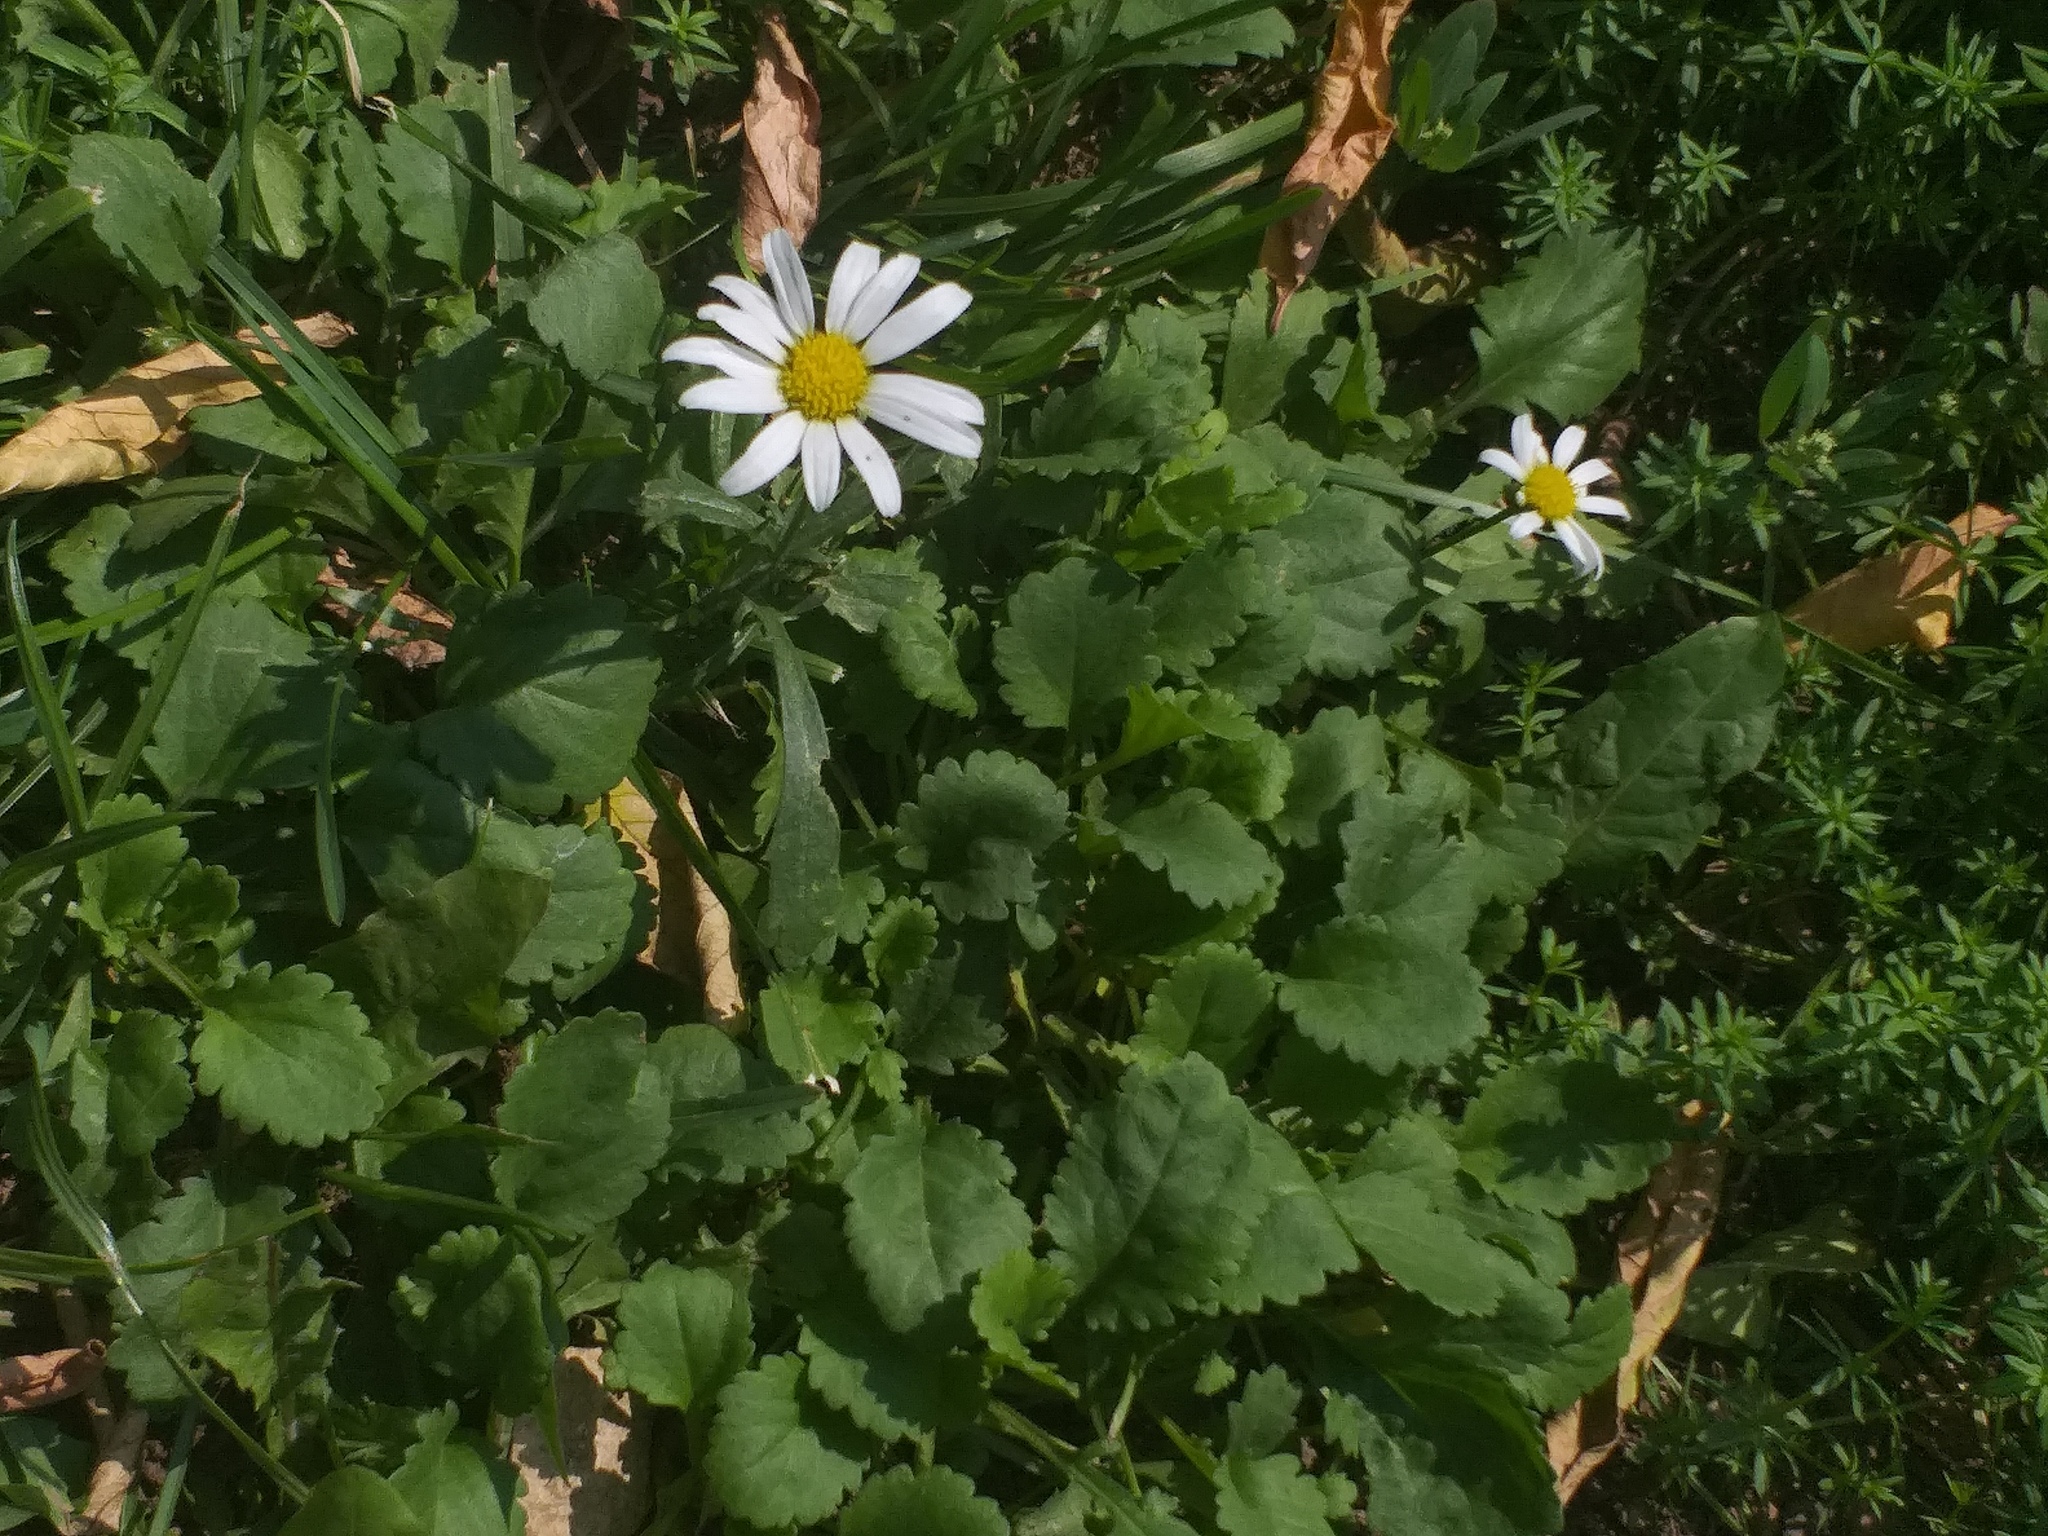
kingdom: Plantae
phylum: Tracheophyta
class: Magnoliopsida
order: Asterales
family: Asteraceae
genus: Leucanthemum
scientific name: Leucanthemum vulgare
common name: Oxeye daisy
